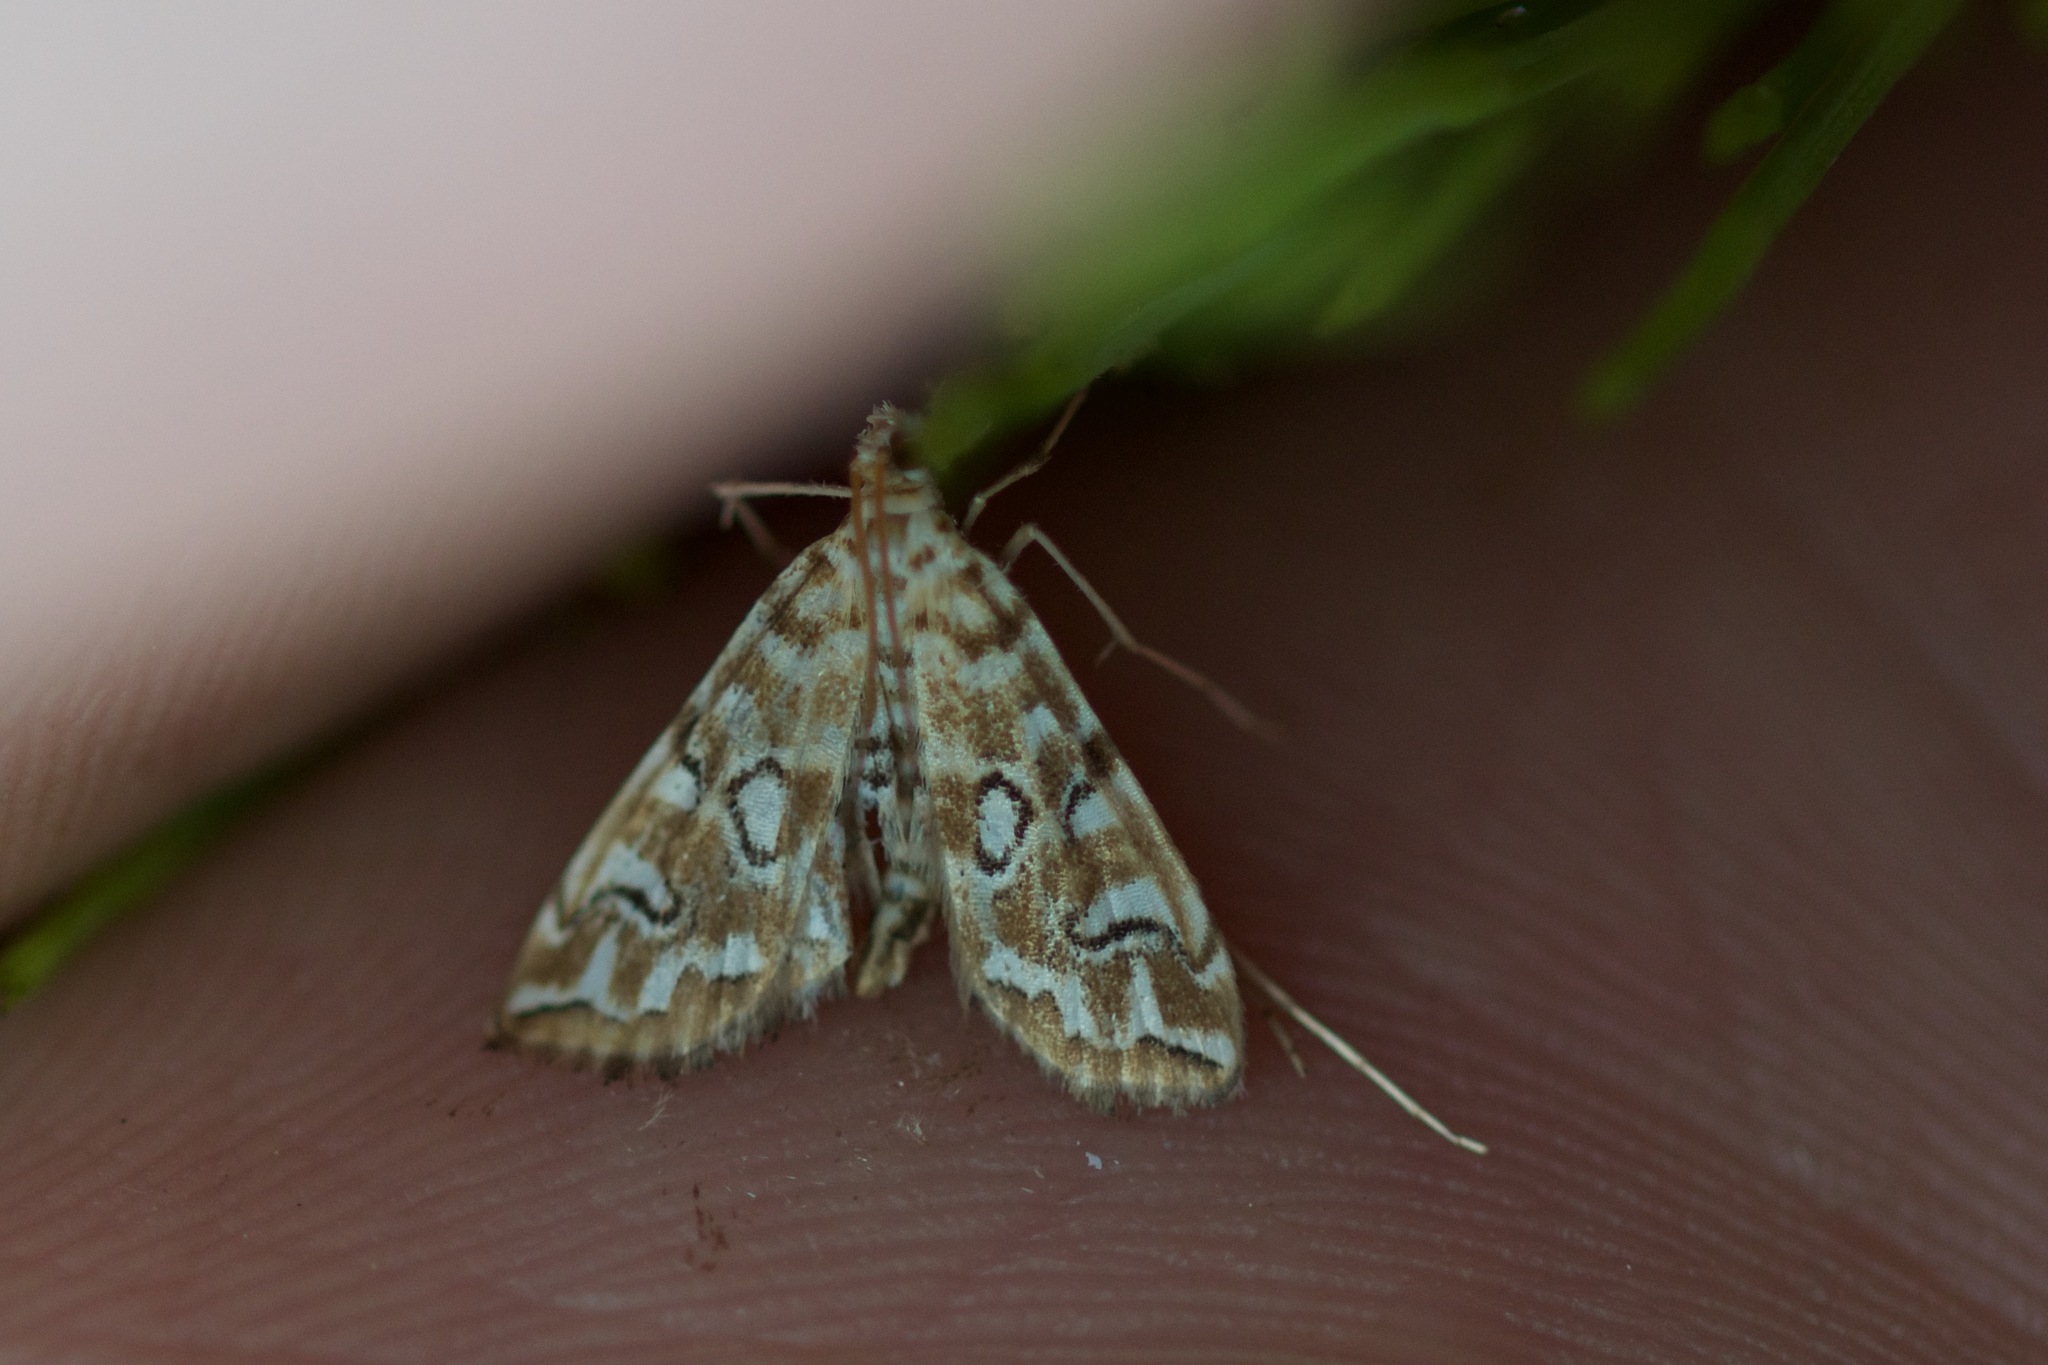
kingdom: Animalia
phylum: Arthropoda
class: Insecta
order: Lepidoptera
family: Crambidae
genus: Elophila
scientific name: Elophila icciusalis
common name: Pondside pyralid moth
